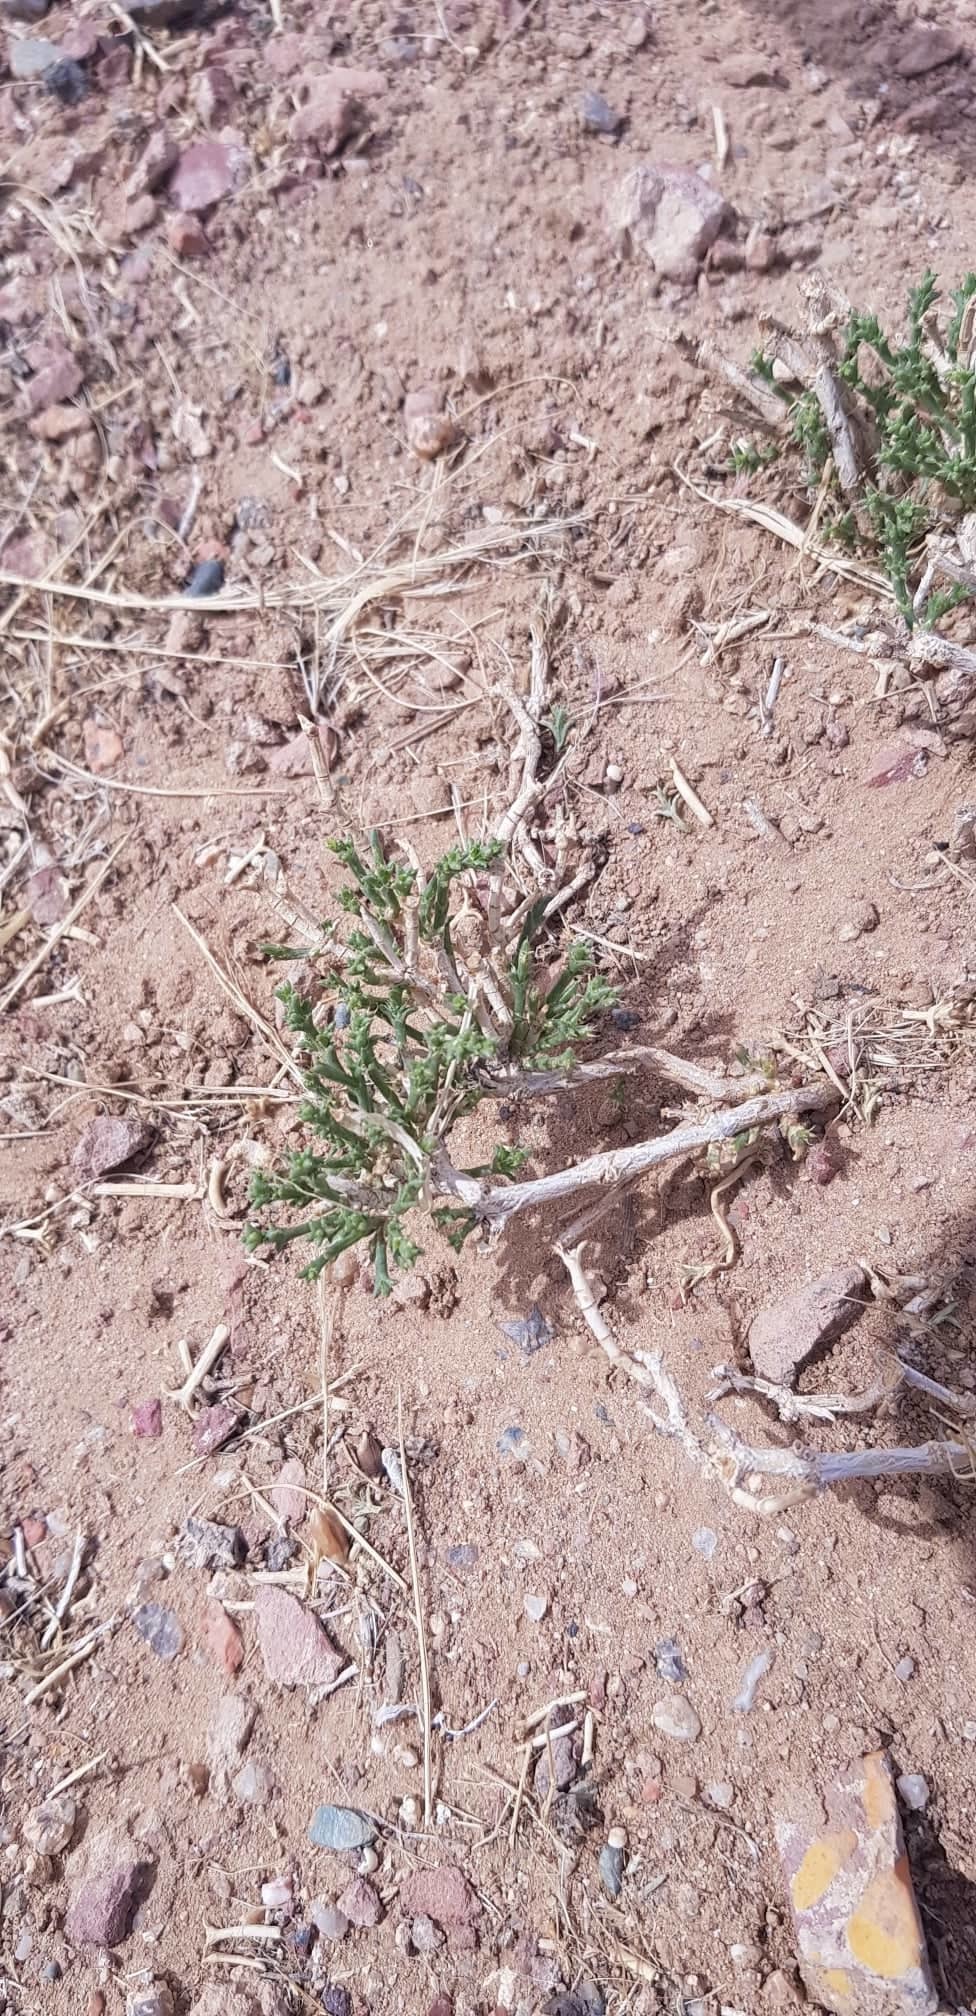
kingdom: Plantae
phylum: Tracheophyta
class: Magnoliopsida
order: Caryophyllales
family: Amaranthaceae
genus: Anabasis
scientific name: Anabasis brevifolia
